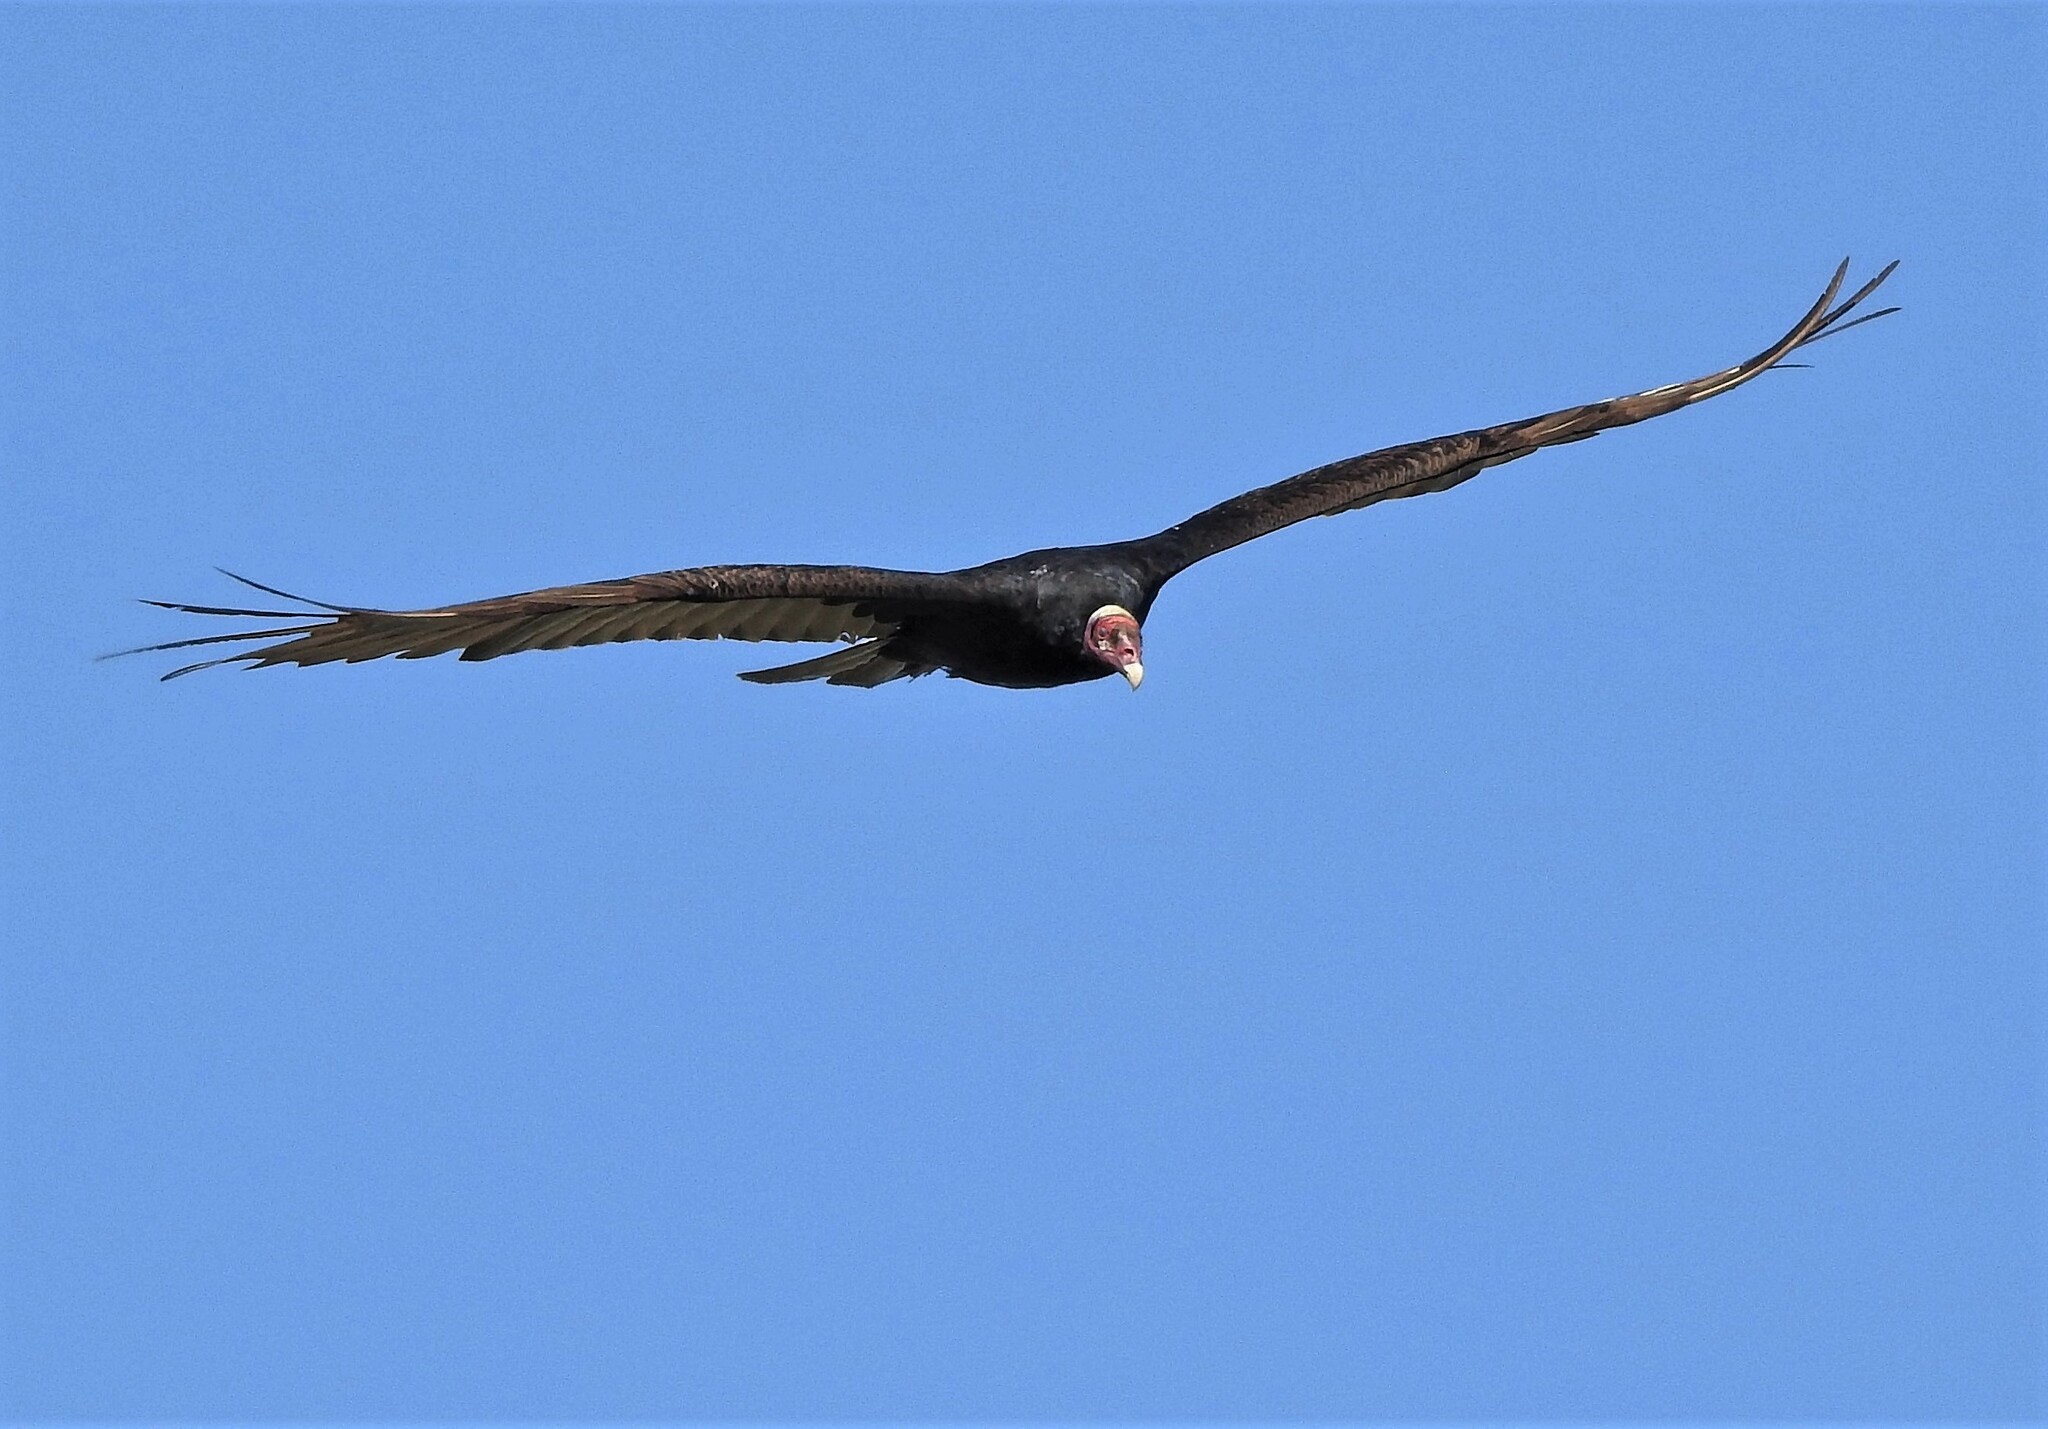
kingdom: Animalia
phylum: Chordata
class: Aves
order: Accipitriformes
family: Cathartidae
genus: Cathartes
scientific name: Cathartes aura
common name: Turkey vulture
